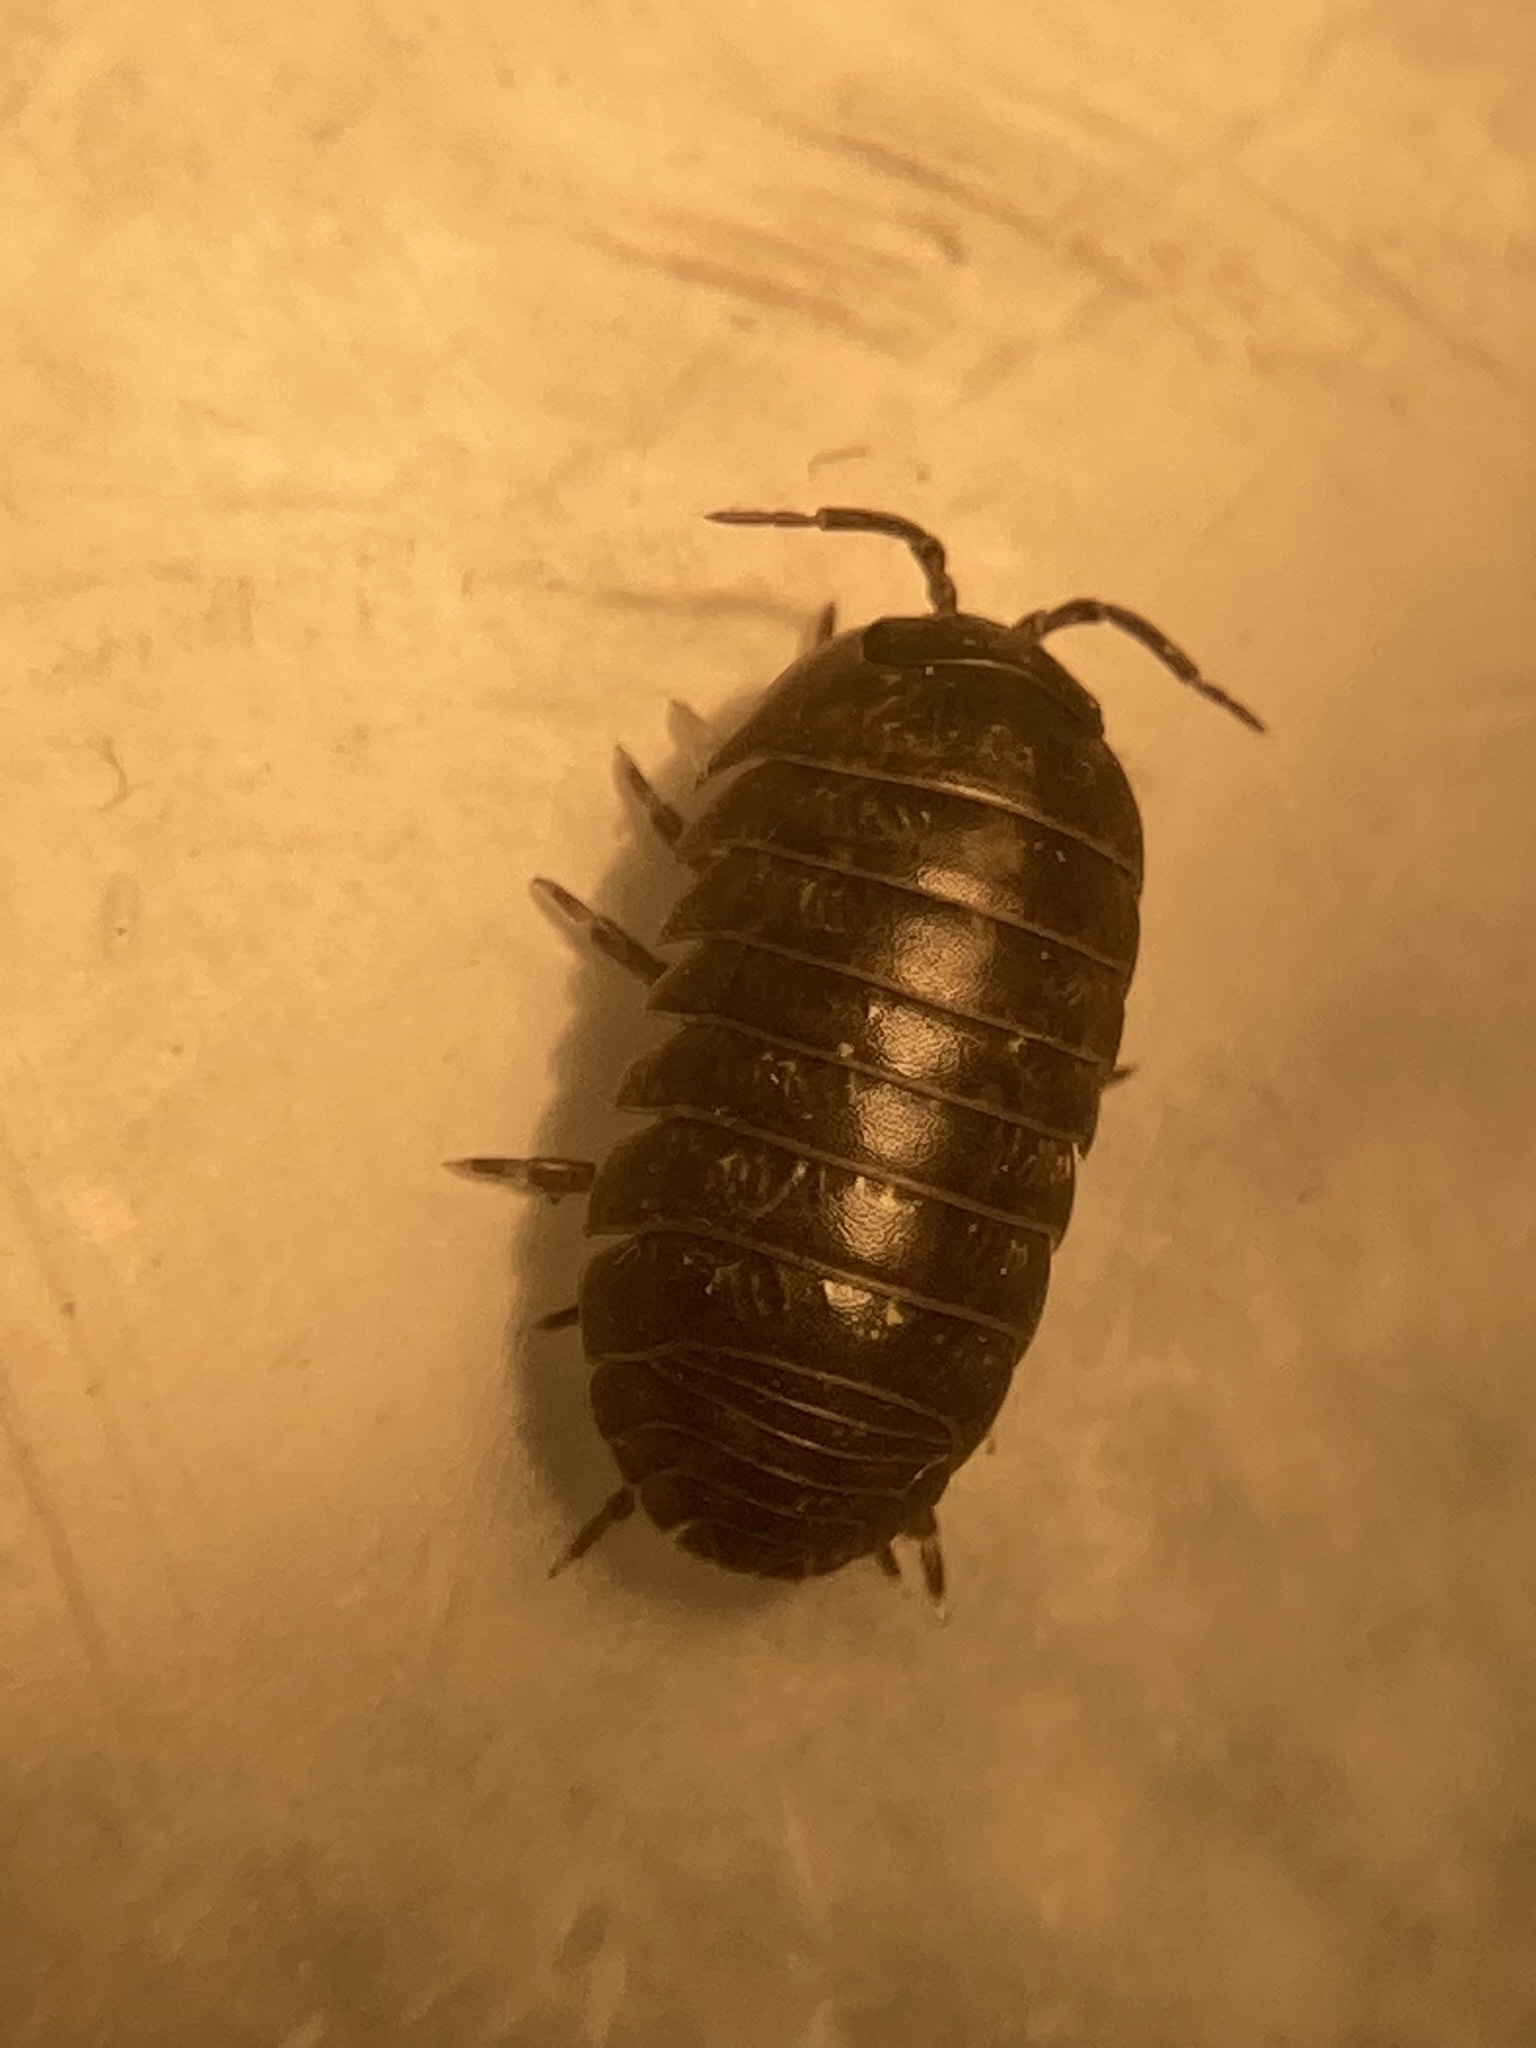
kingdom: Animalia
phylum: Arthropoda
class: Malacostraca
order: Isopoda
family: Armadillidiidae
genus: Armadillidium
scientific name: Armadillidium vulgare
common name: Common pill woodlouse
